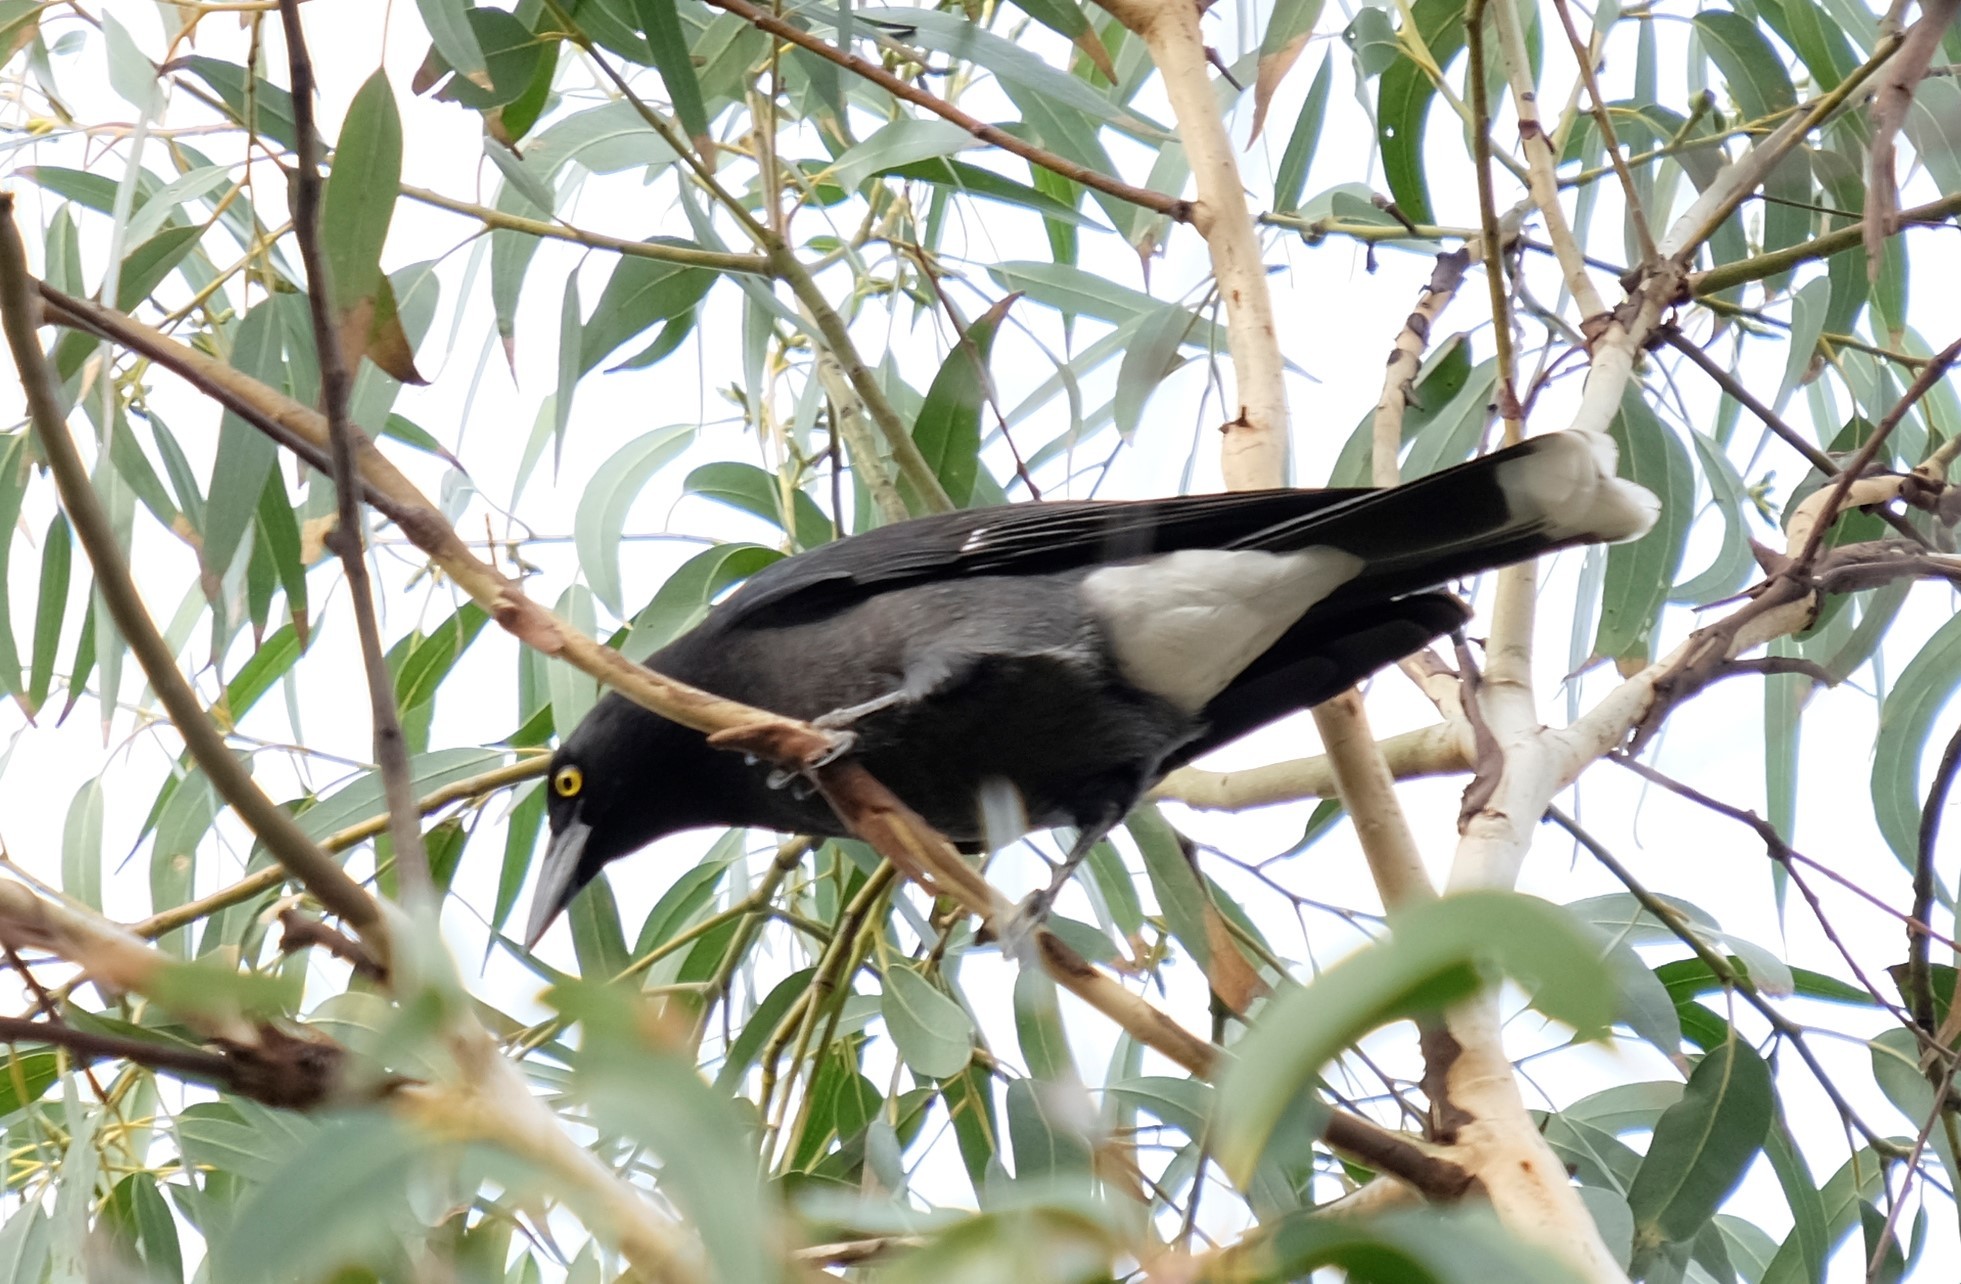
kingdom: Animalia
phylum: Chordata
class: Aves
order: Passeriformes
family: Cracticidae
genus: Strepera
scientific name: Strepera graculina
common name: Pied currawong
